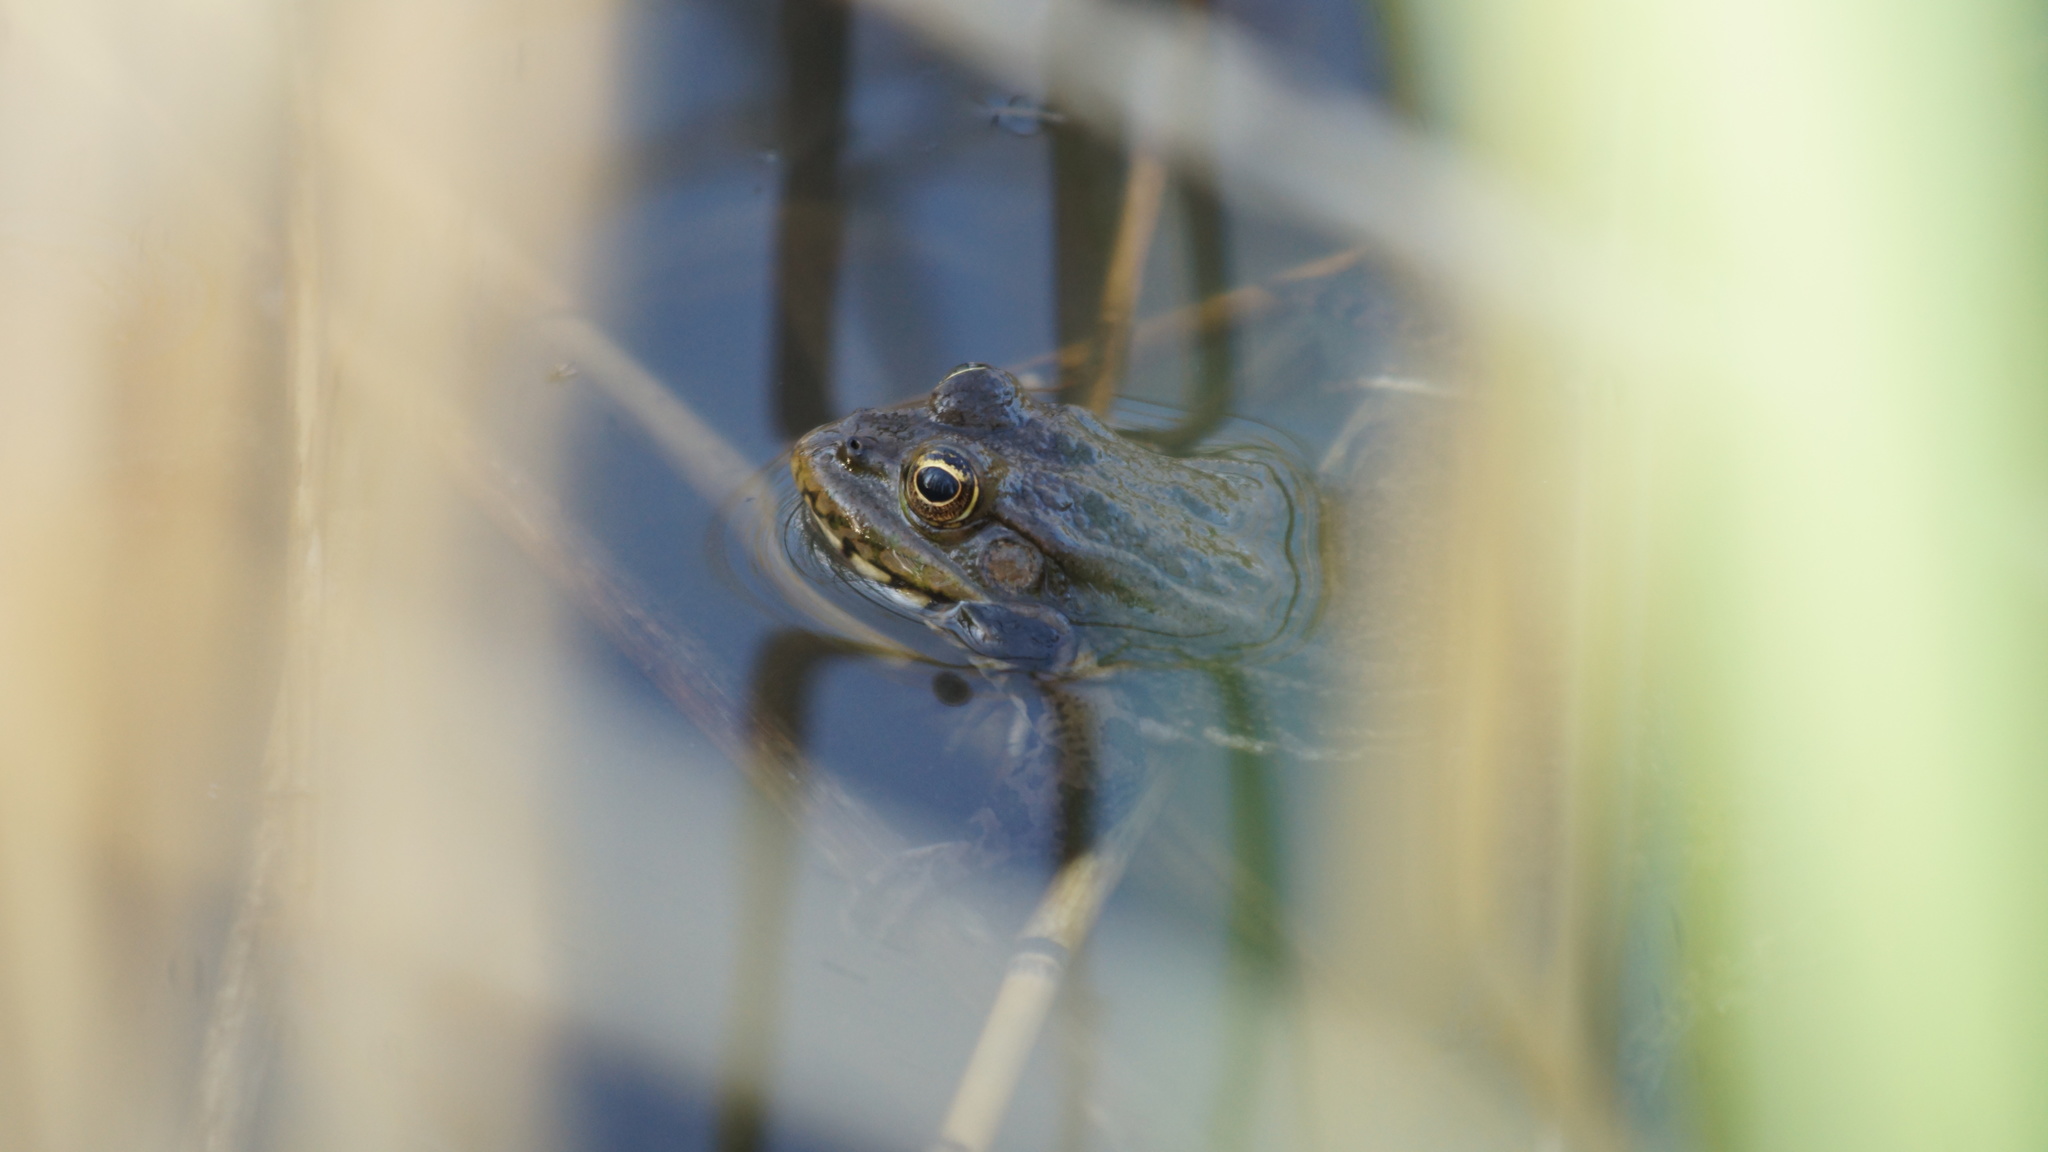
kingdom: Animalia
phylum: Chordata
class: Amphibia
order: Anura
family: Ranidae
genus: Pelophylax
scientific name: Pelophylax ridibundus
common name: Marsh frog
